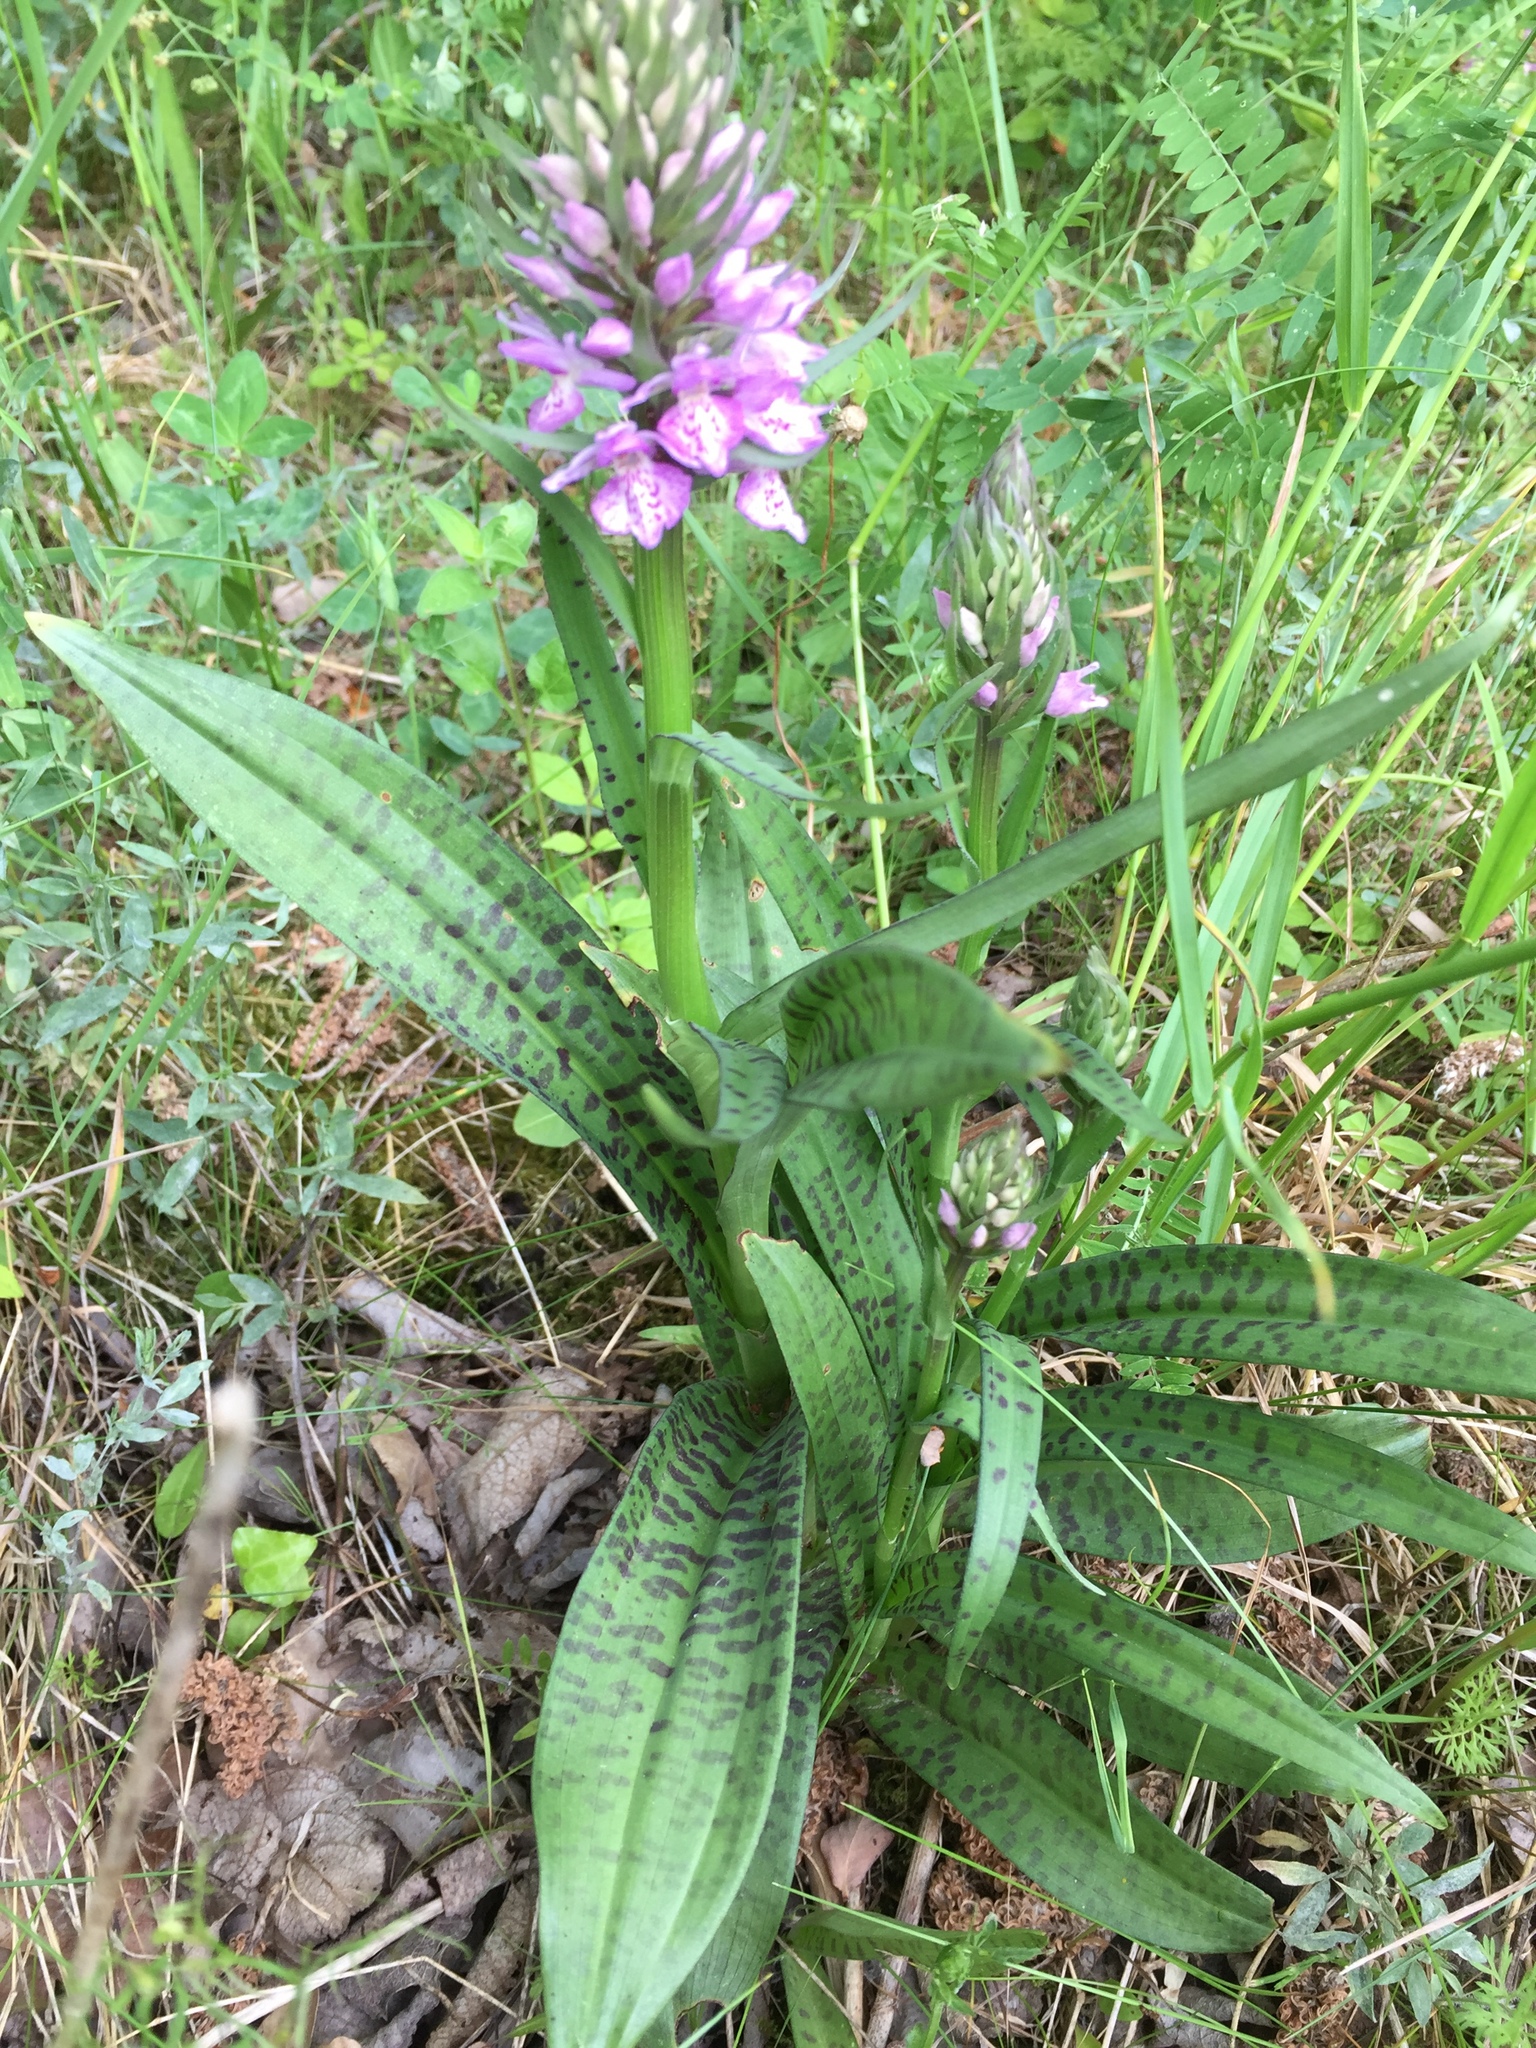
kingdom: Plantae
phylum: Tracheophyta
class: Liliopsida
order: Asparagales
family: Orchidaceae
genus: Dactylorhiza
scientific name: Dactylorhiza majalis
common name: Marsh orchid
